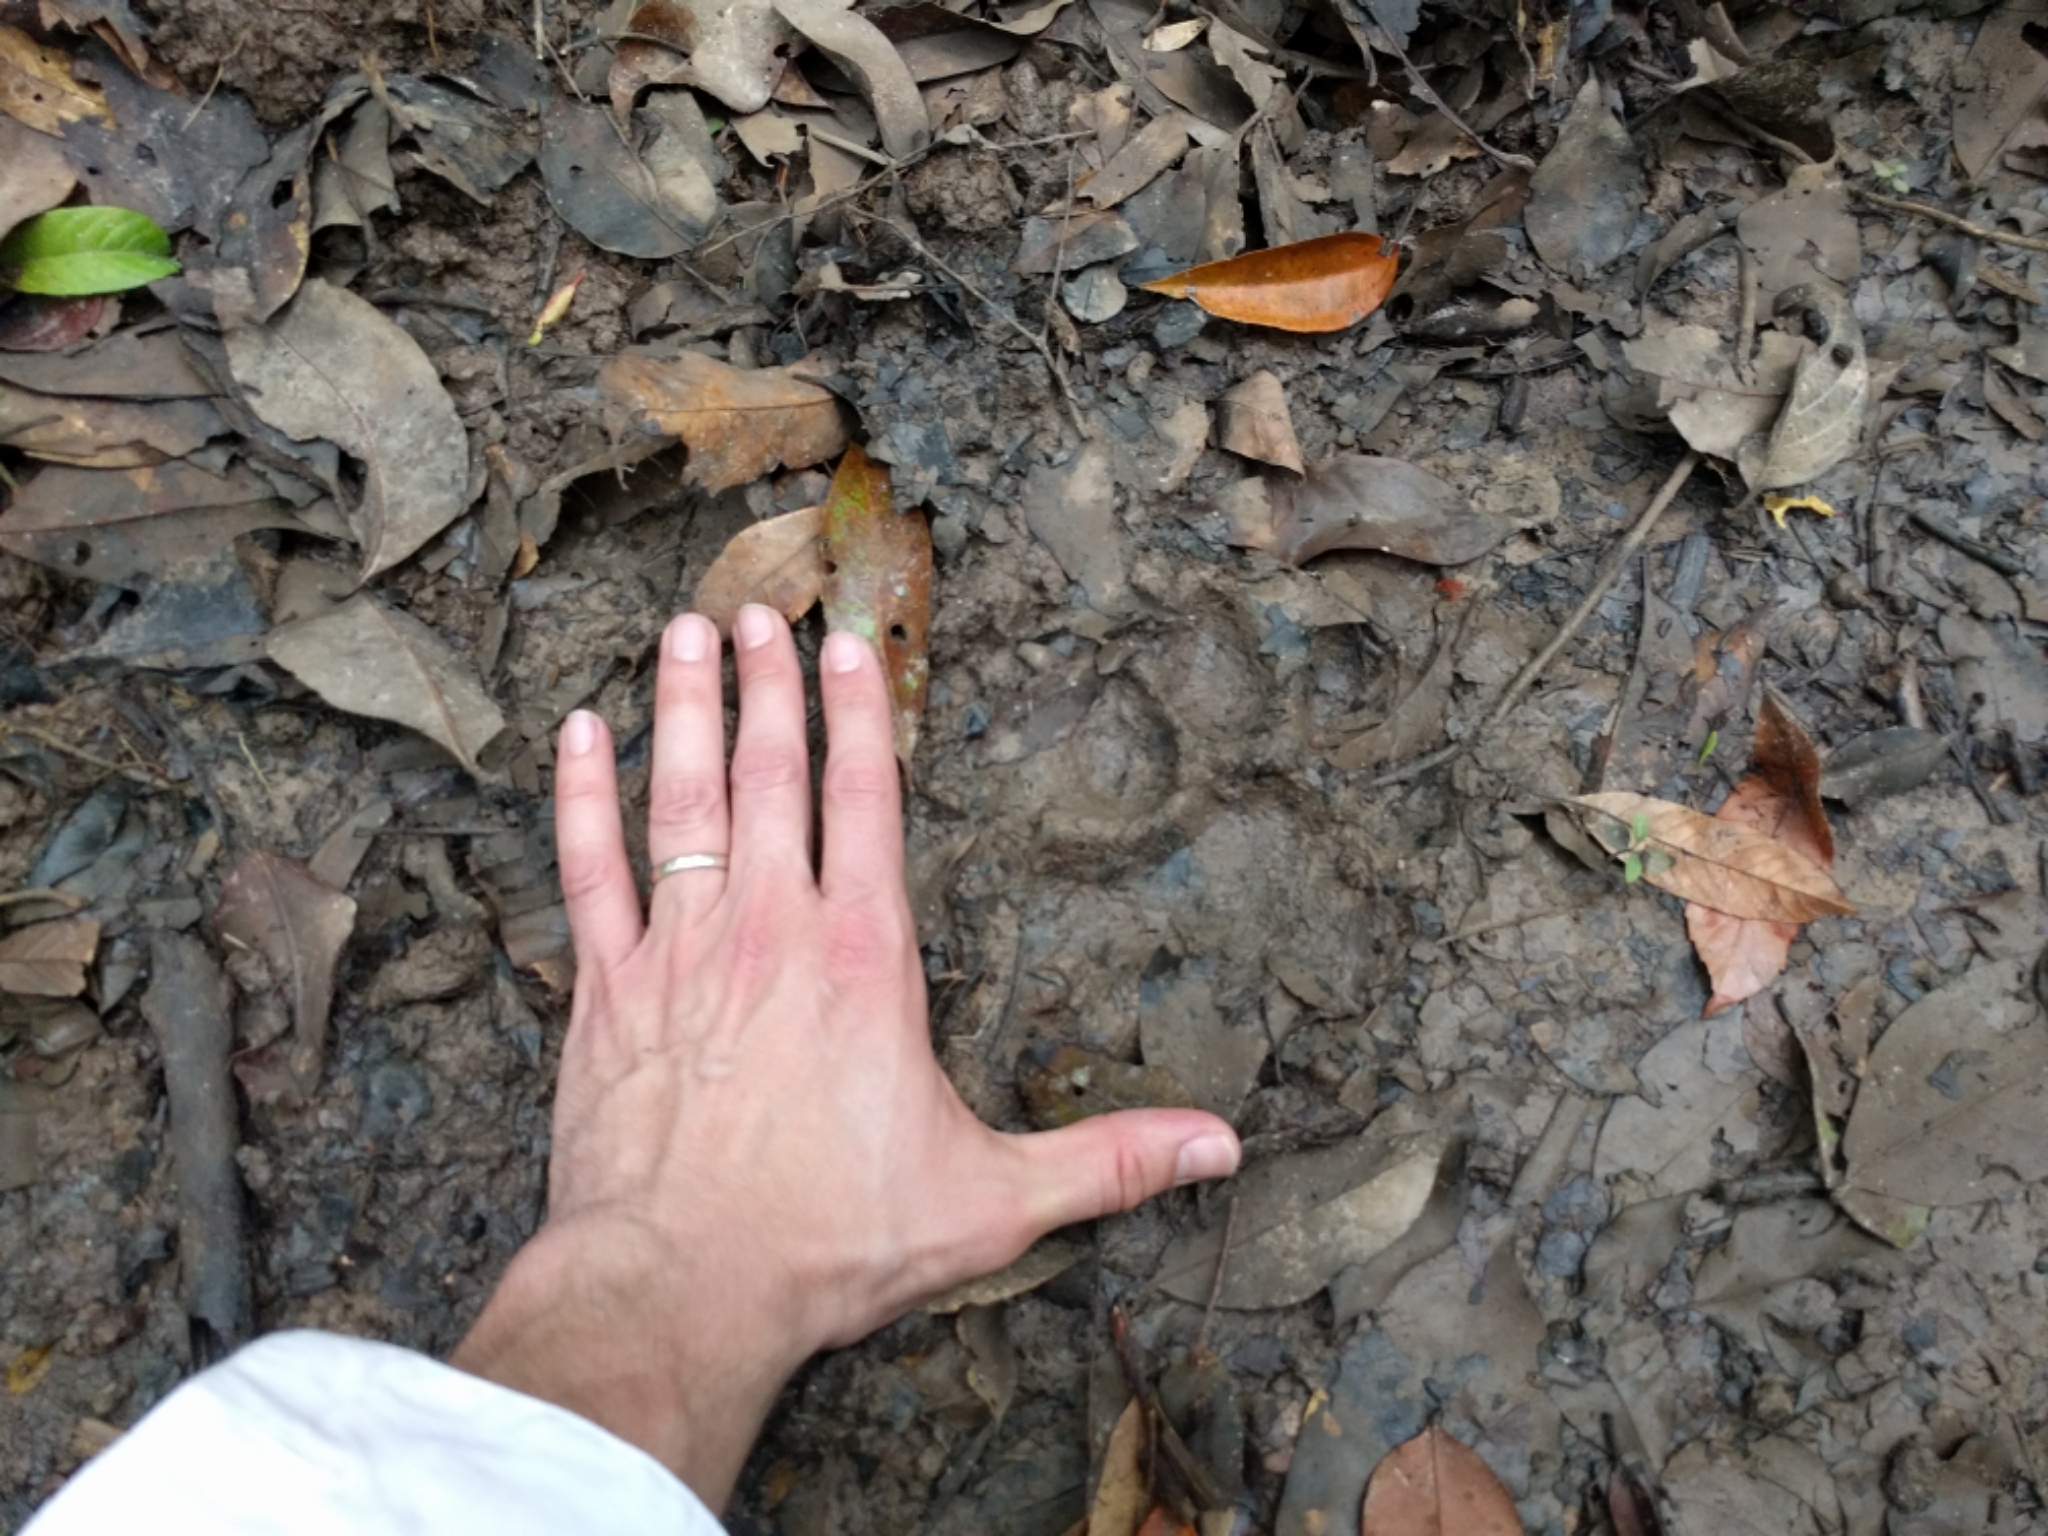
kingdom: Animalia
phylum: Chordata
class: Mammalia
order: Carnivora
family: Felidae
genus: Panthera
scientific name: Panthera tigris
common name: Tiger
